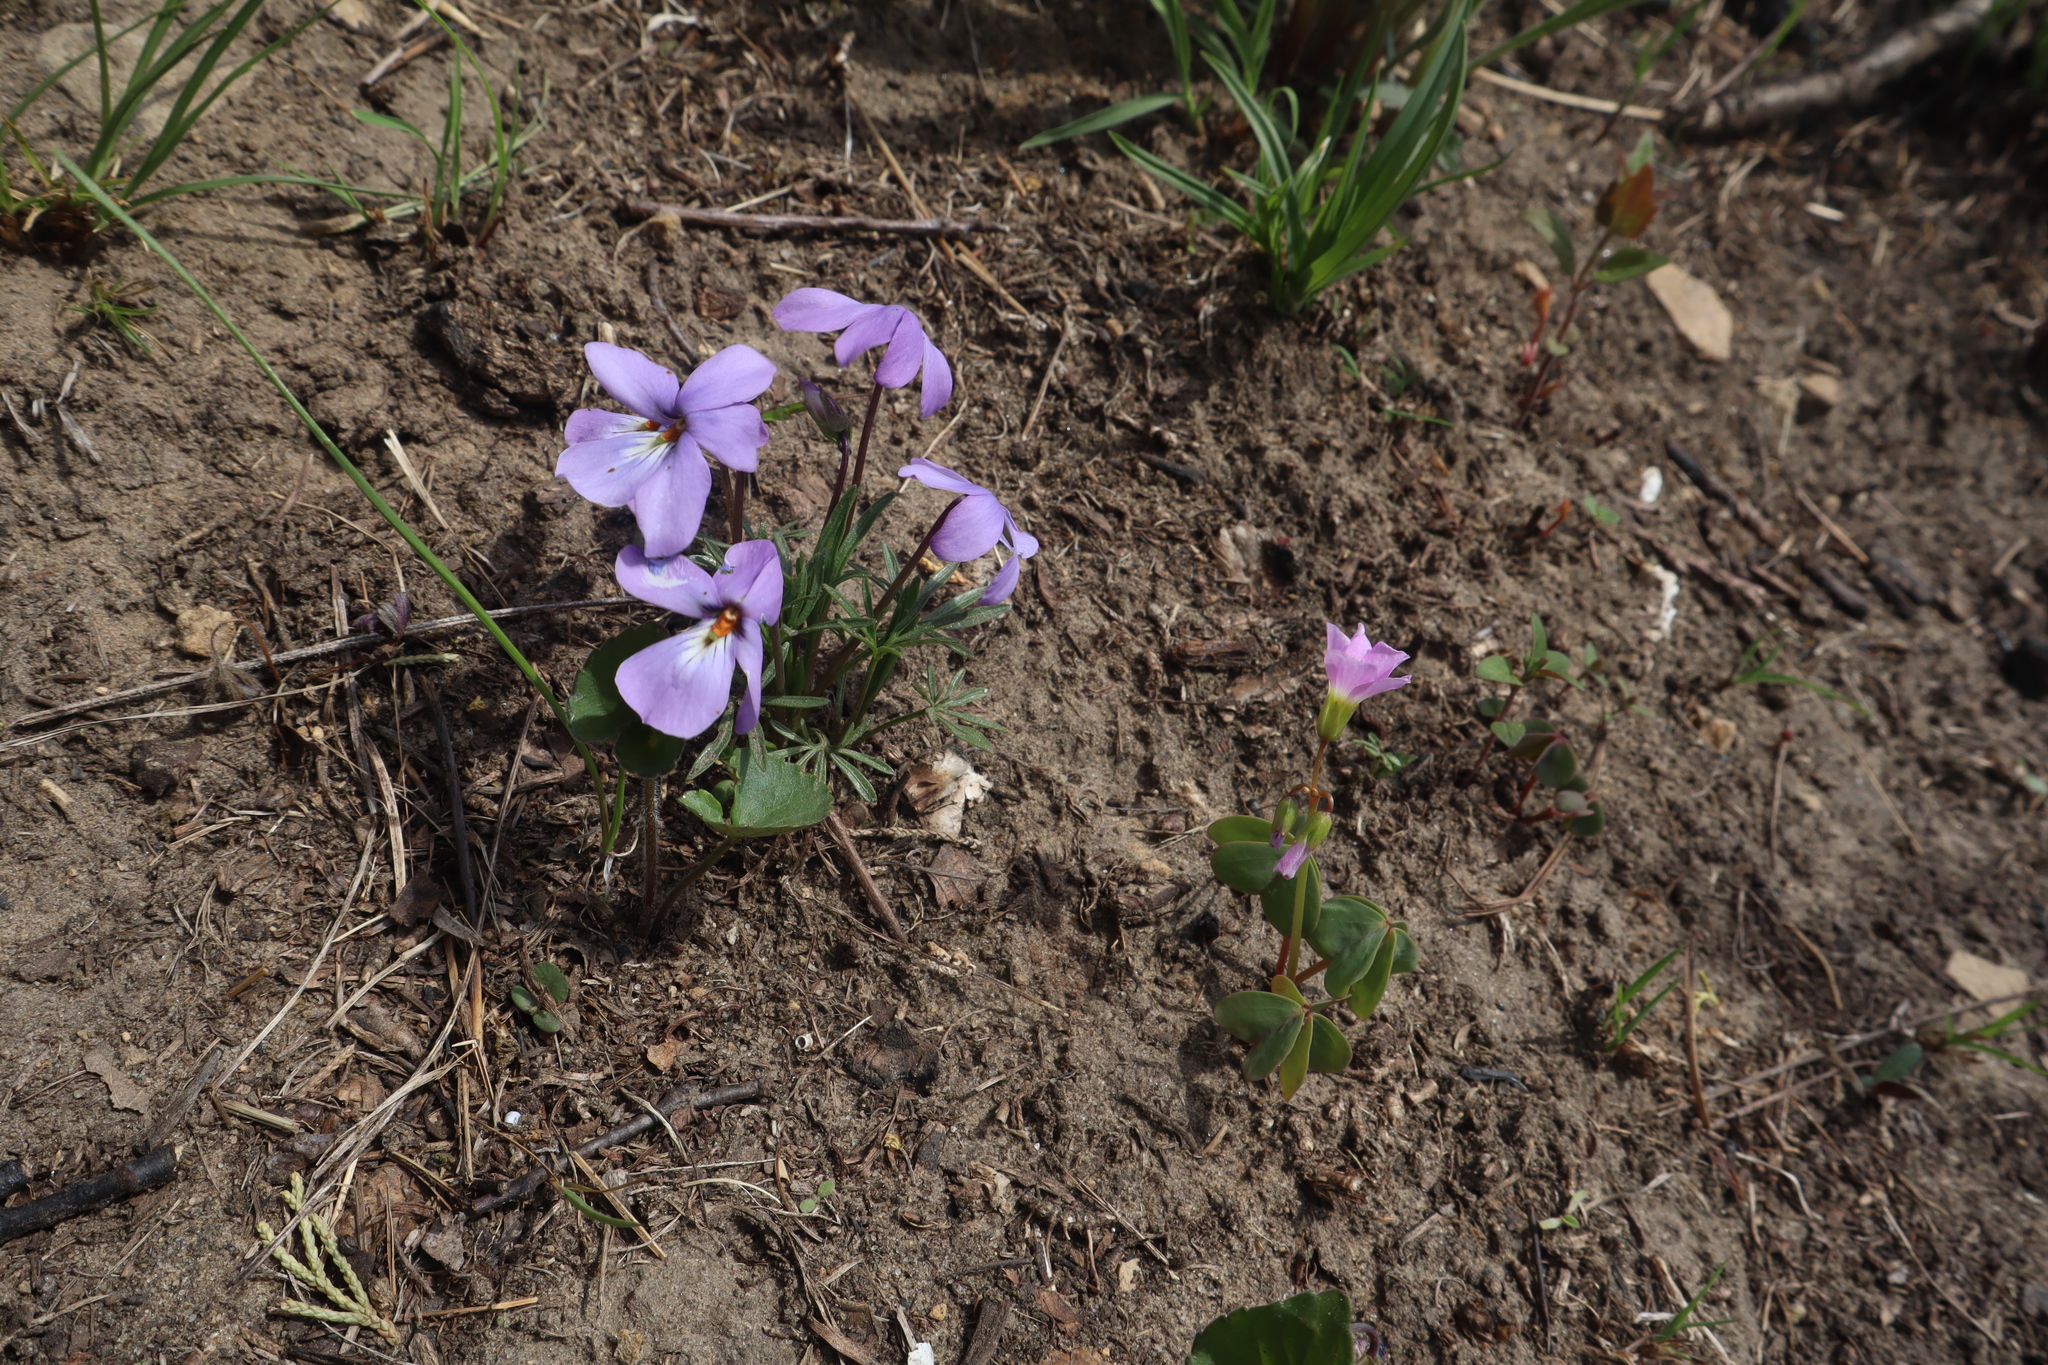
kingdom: Plantae
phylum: Tracheophyta
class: Magnoliopsida
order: Malpighiales
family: Violaceae
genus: Viola
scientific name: Viola pedata
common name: Pansy violet
